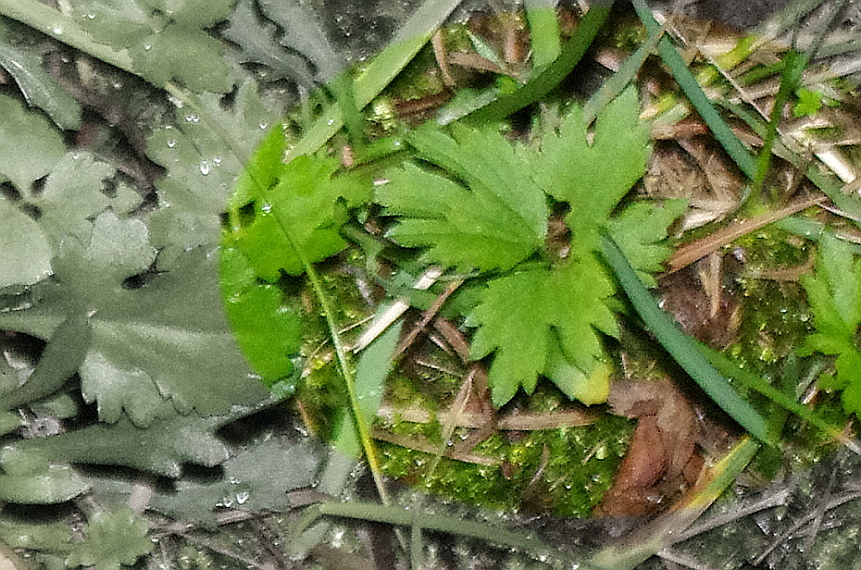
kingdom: Plantae
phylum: Tracheophyta
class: Magnoliopsida
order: Ranunculales
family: Ranunculaceae
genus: Ranunculus
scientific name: Ranunculus repens
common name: Creeping buttercup
